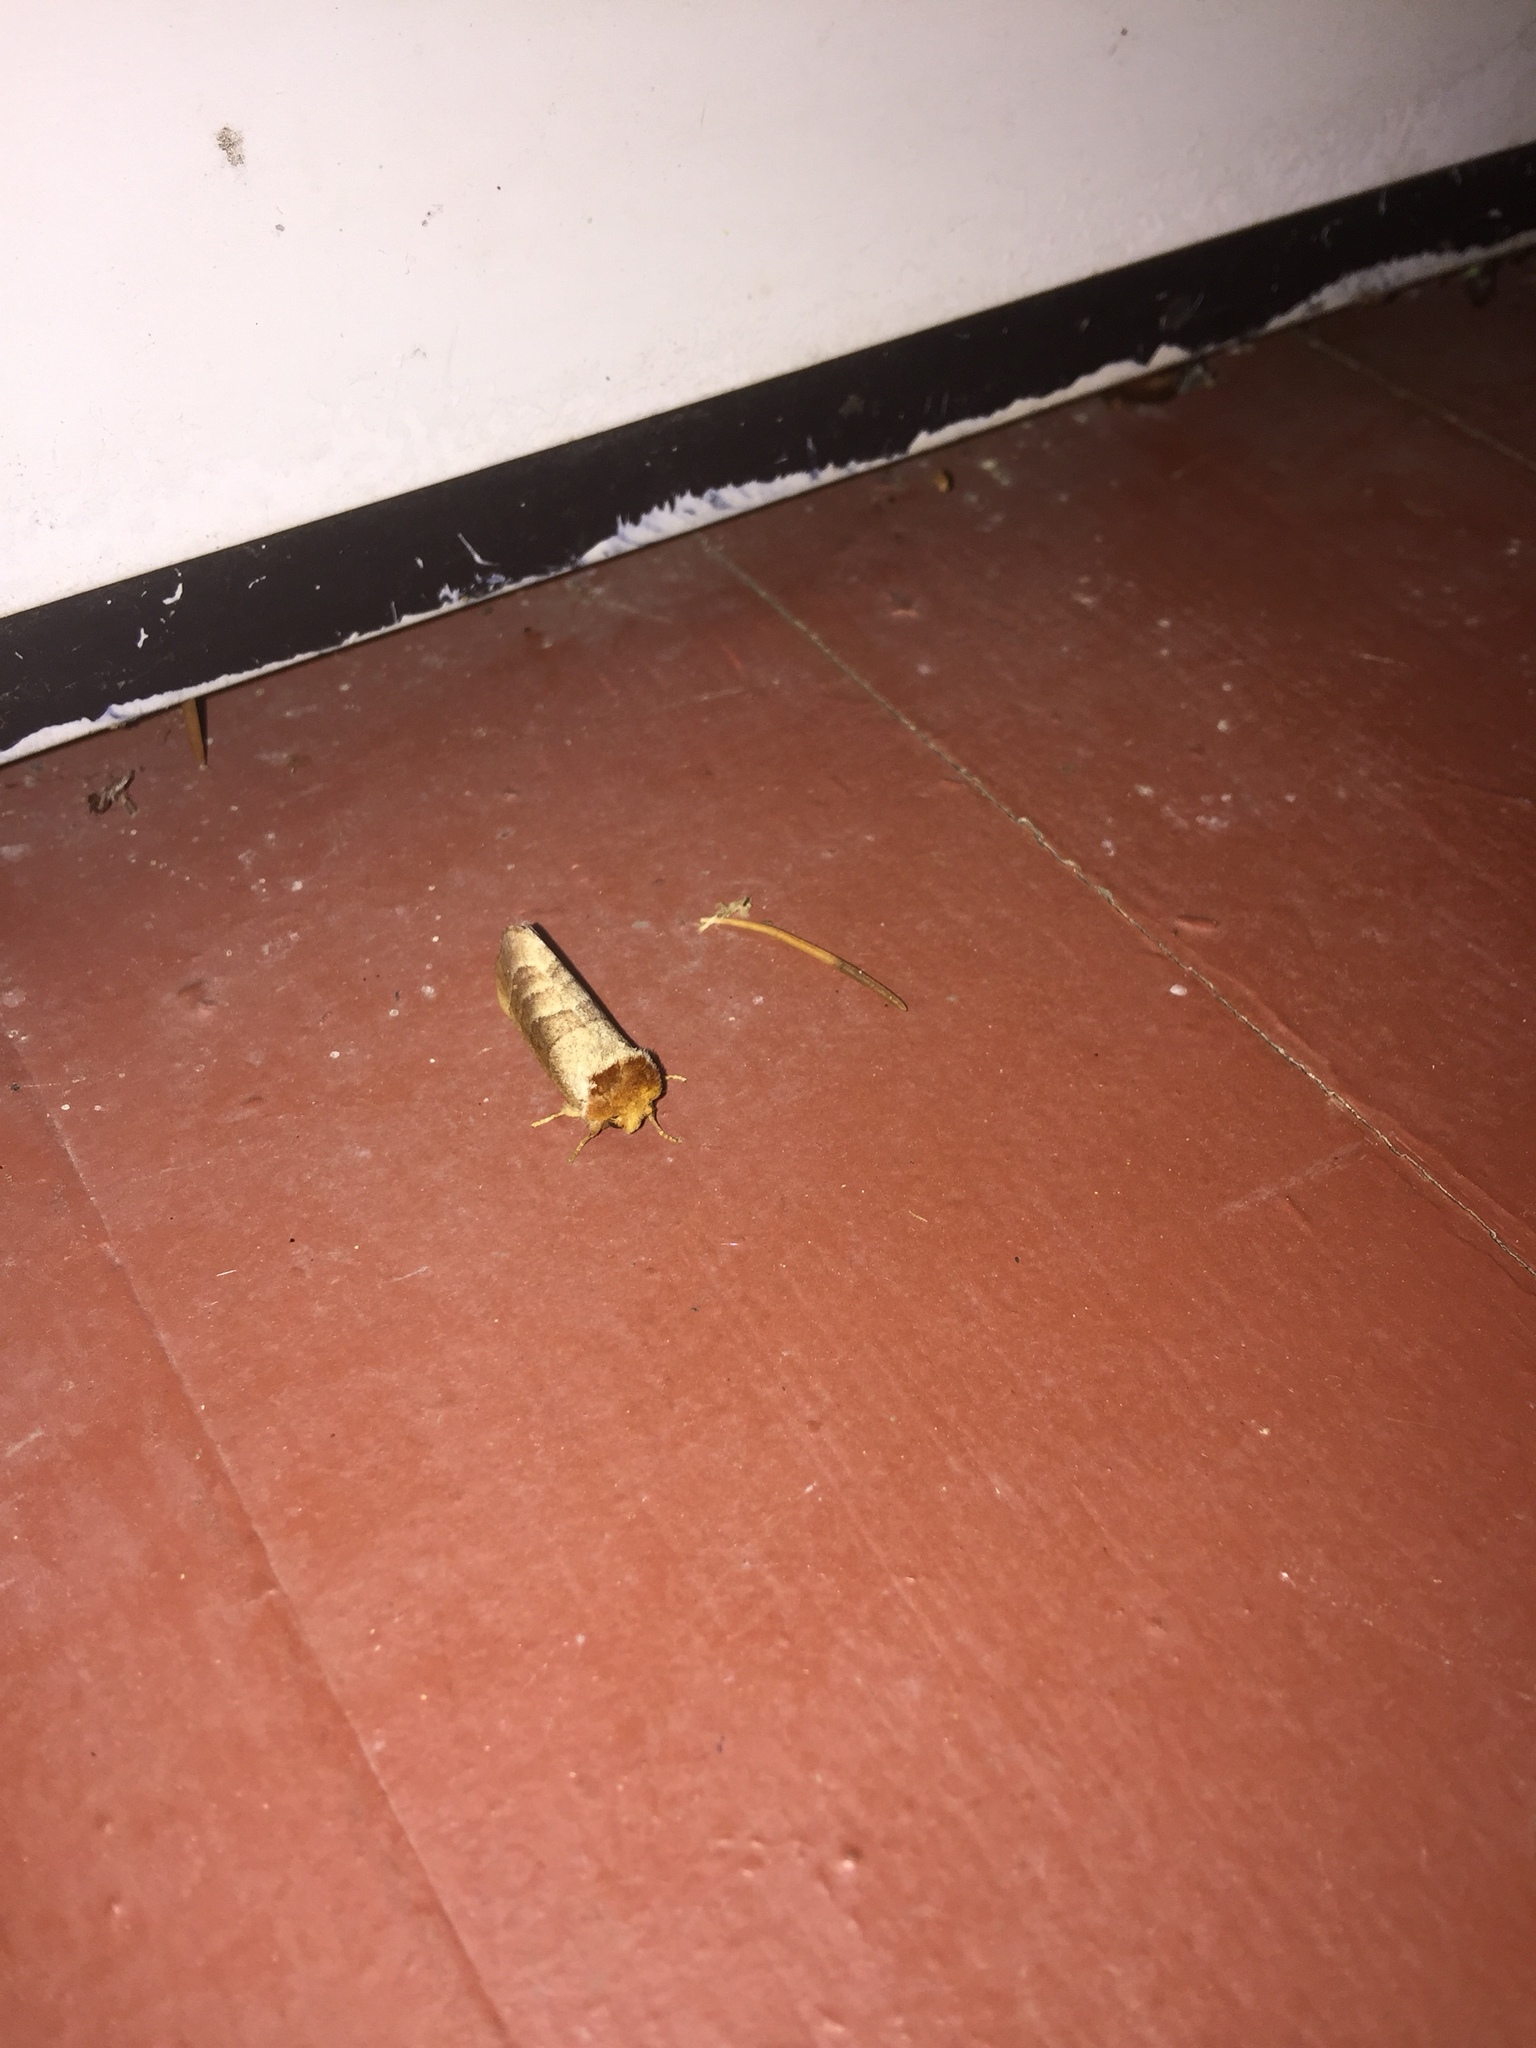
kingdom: Animalia
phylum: Arthropoda
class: Insecta
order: Lepidoptera
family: Notodontidae
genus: Datana
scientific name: Datana integerrima
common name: Walnut caterpillar
